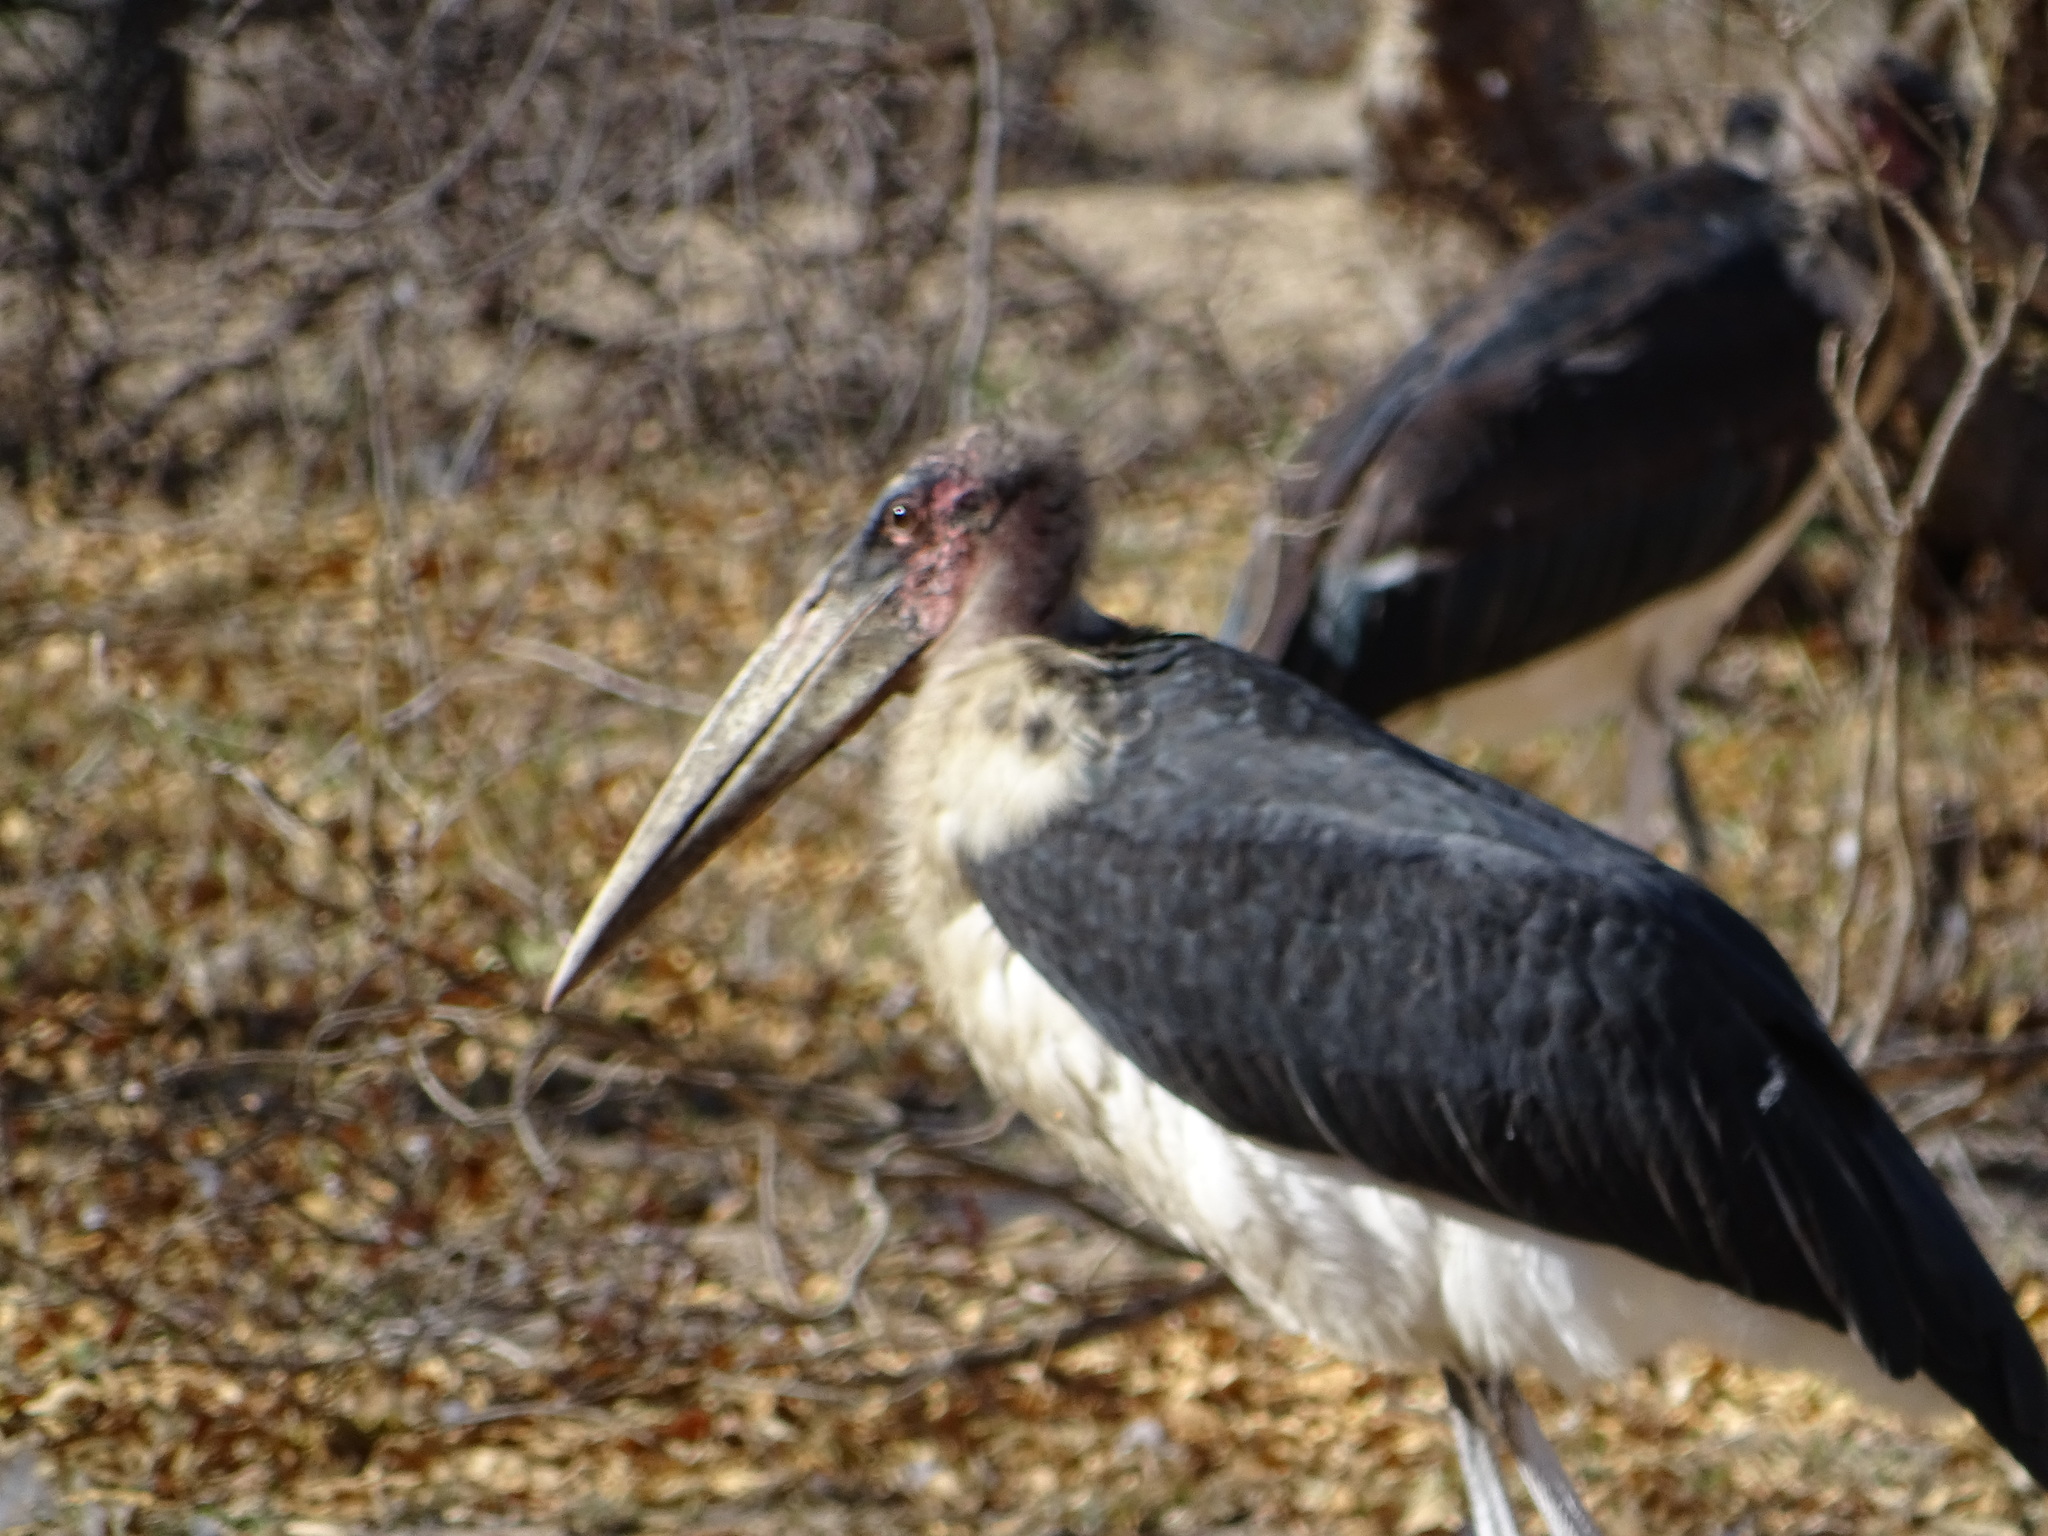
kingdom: Animalia
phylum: Chordata
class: Aves
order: Ciconiiformes
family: Ciconiidae
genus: Leptoptilos
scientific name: Leptoptilos crumenifer
